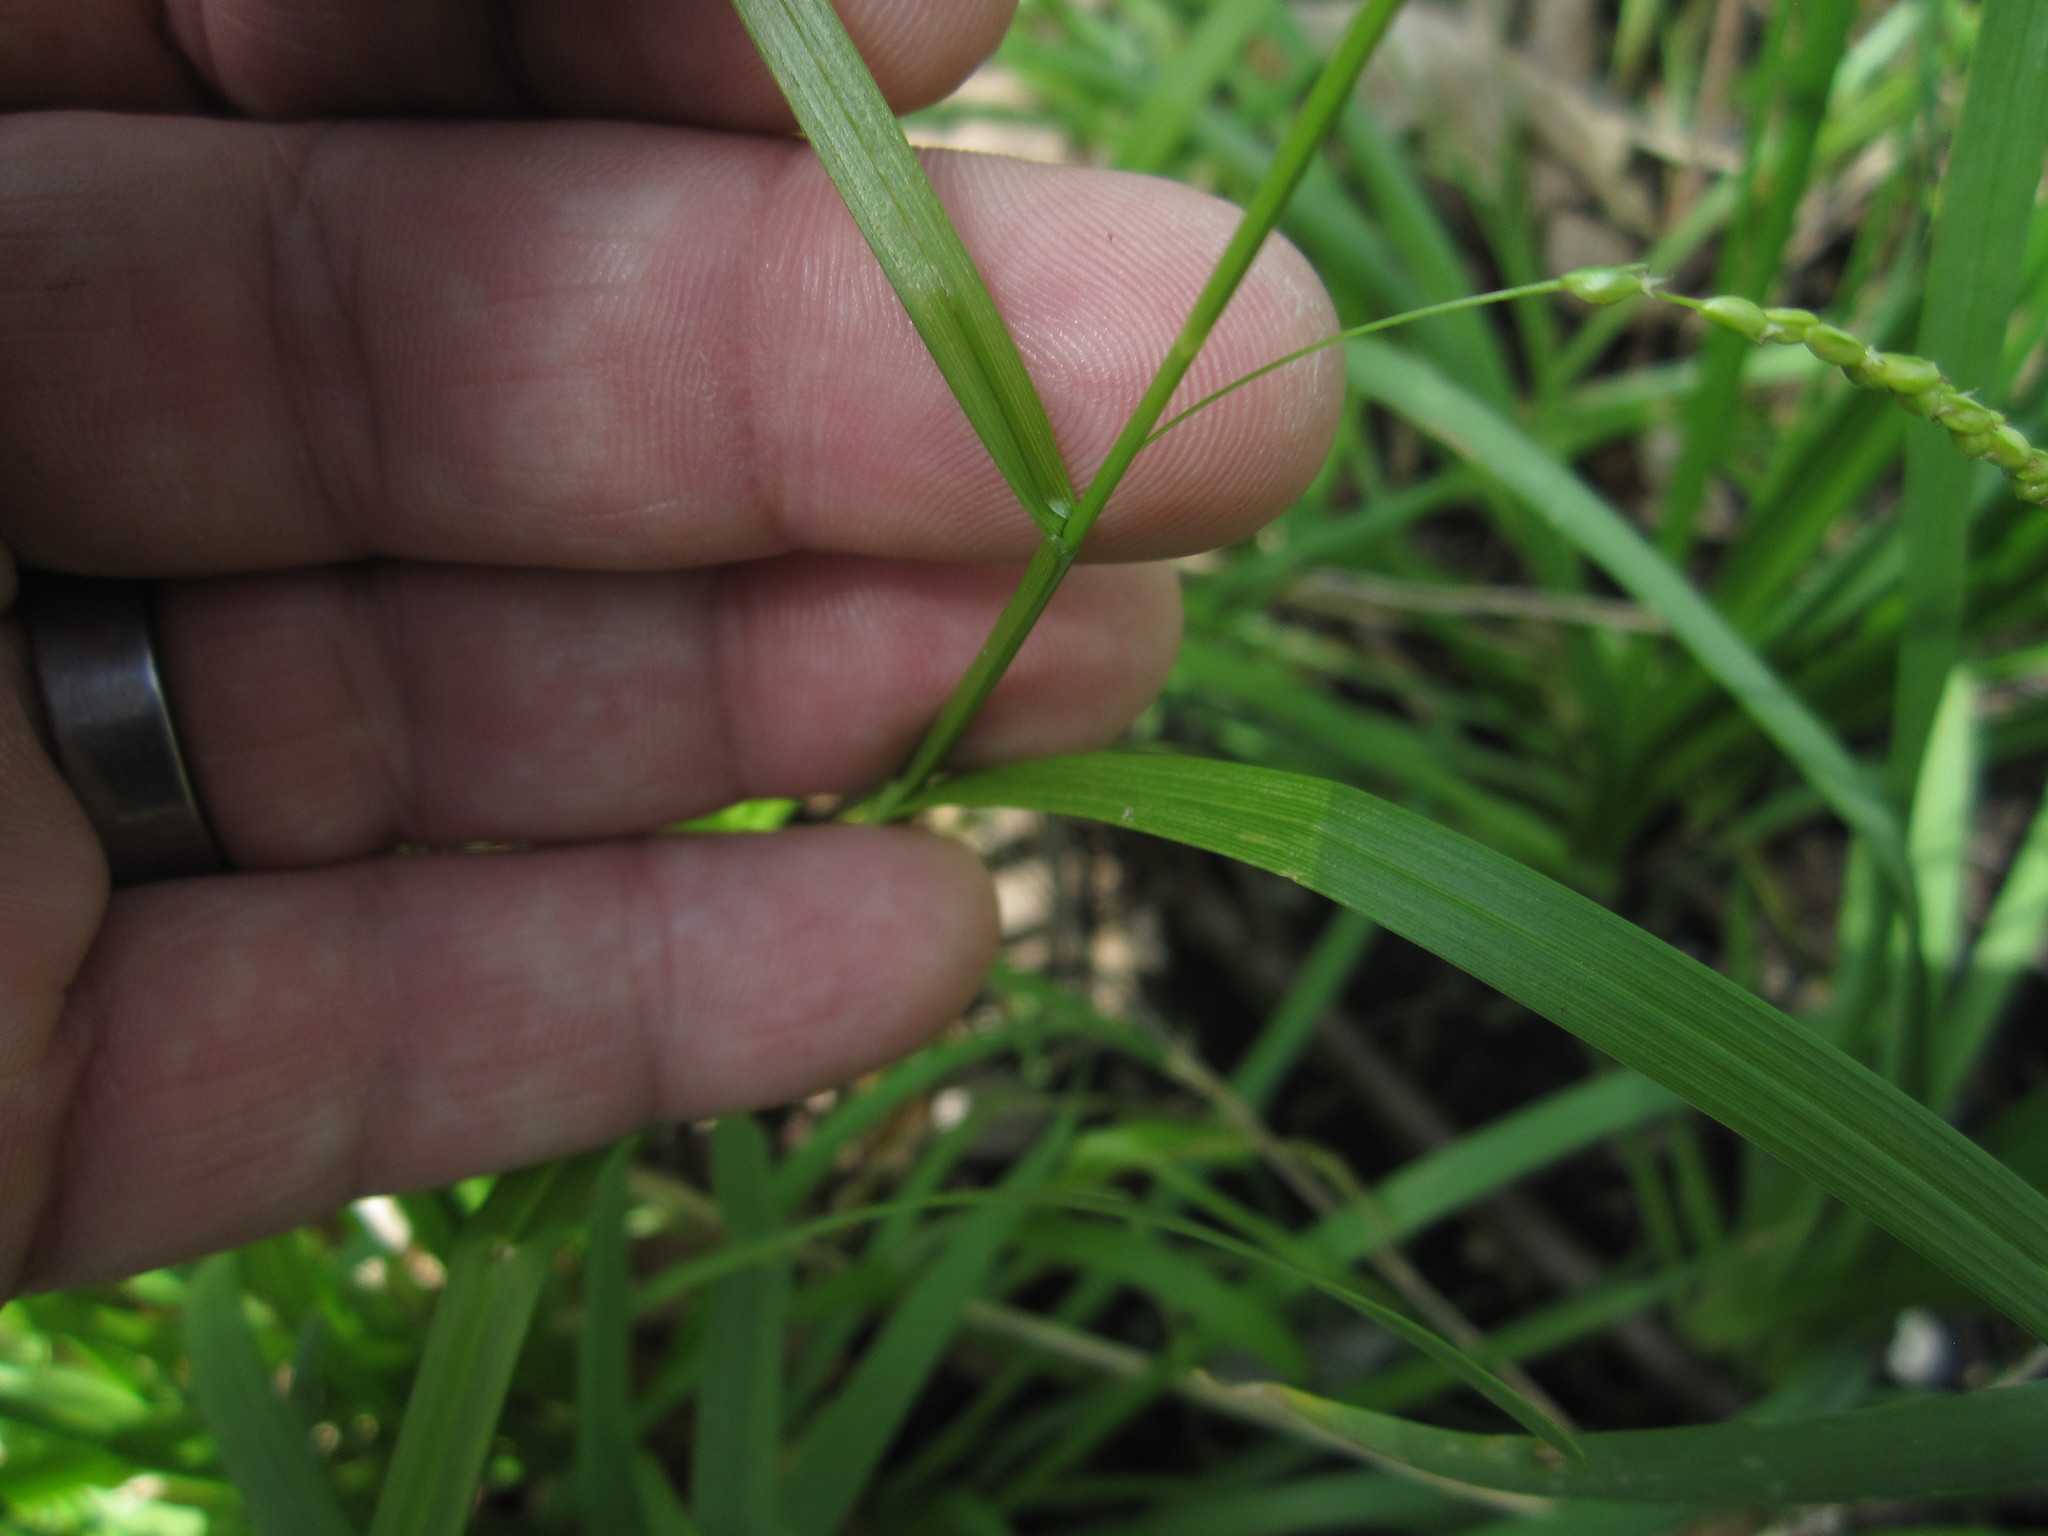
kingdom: Plantae
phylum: Tracheophyta
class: Liliopsida
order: Poales
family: Cyperaceae
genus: Carex
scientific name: Carex gracillima
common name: Graceful sedge
